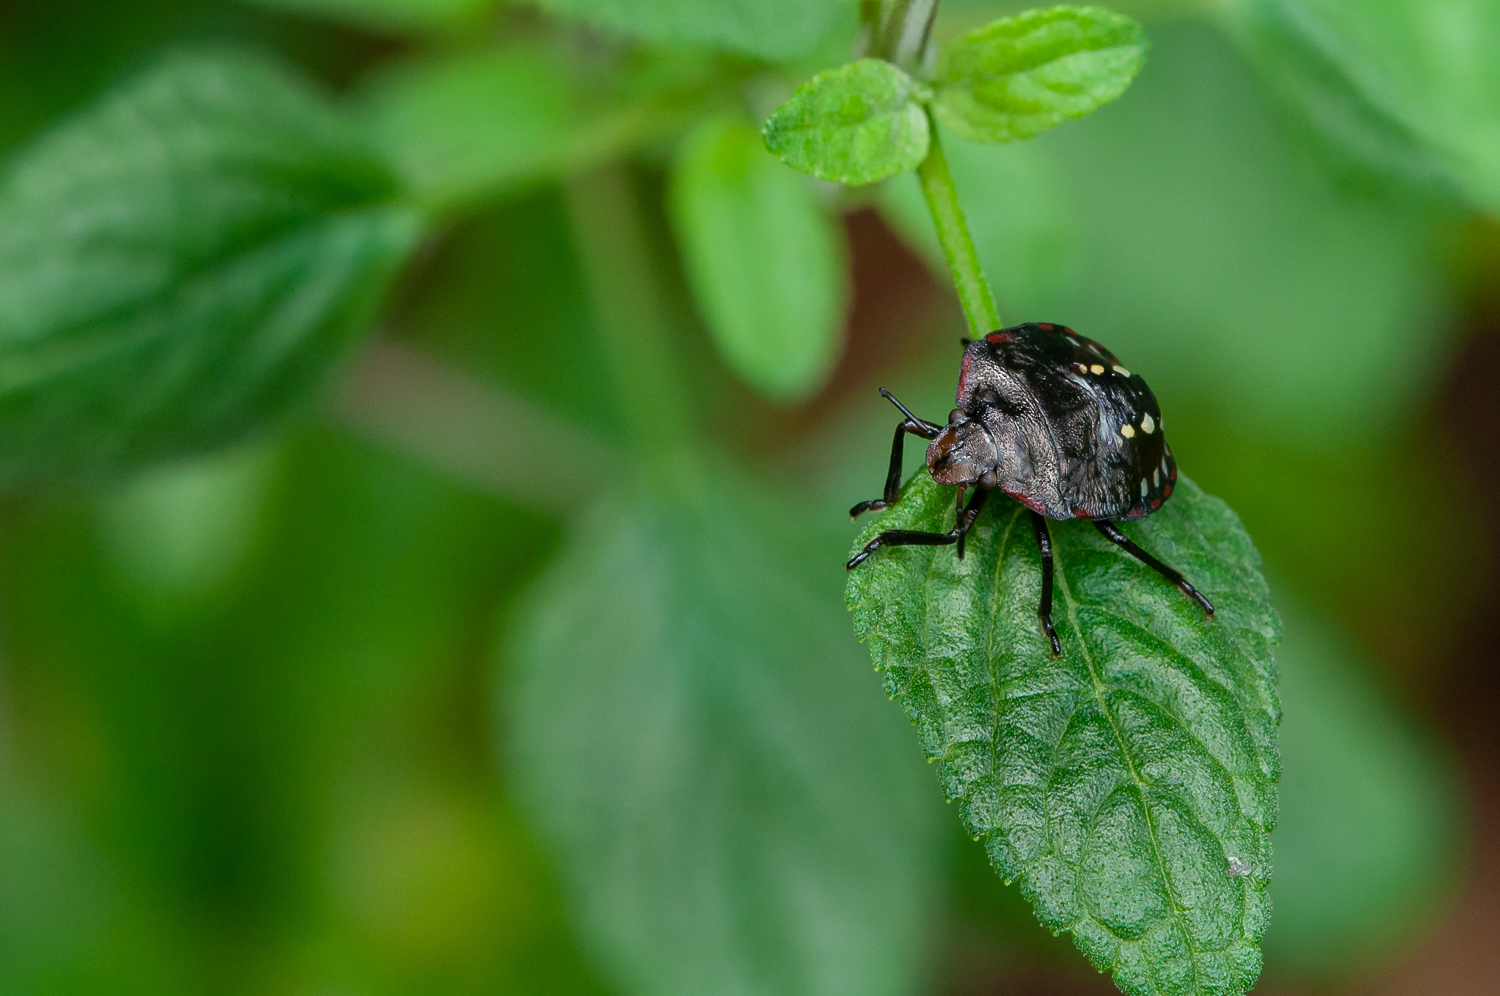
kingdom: Animalia
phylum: Arthropoda
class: Insecta
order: Hemiptera
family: Pentatomidae
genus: Nezara
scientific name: Nezara viridula
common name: Southern green stink bug
